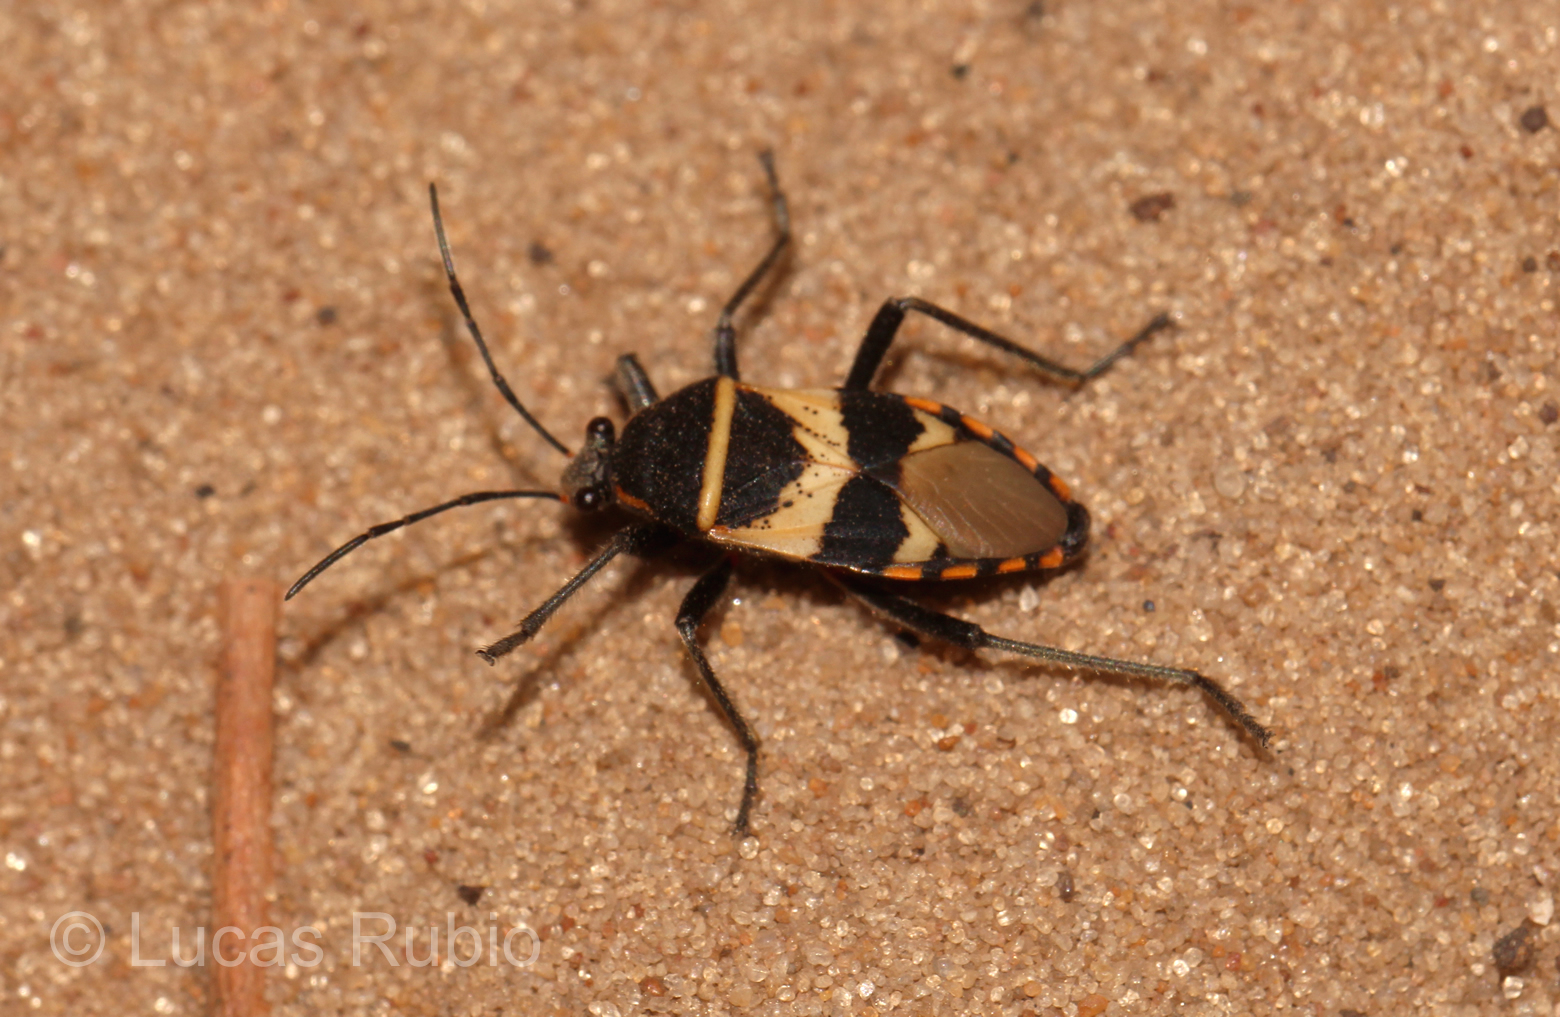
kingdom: Animalia
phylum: Arthropoda
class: Insecta
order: Hemiptera
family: Largidae
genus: Largus
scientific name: Largus fasciatus
